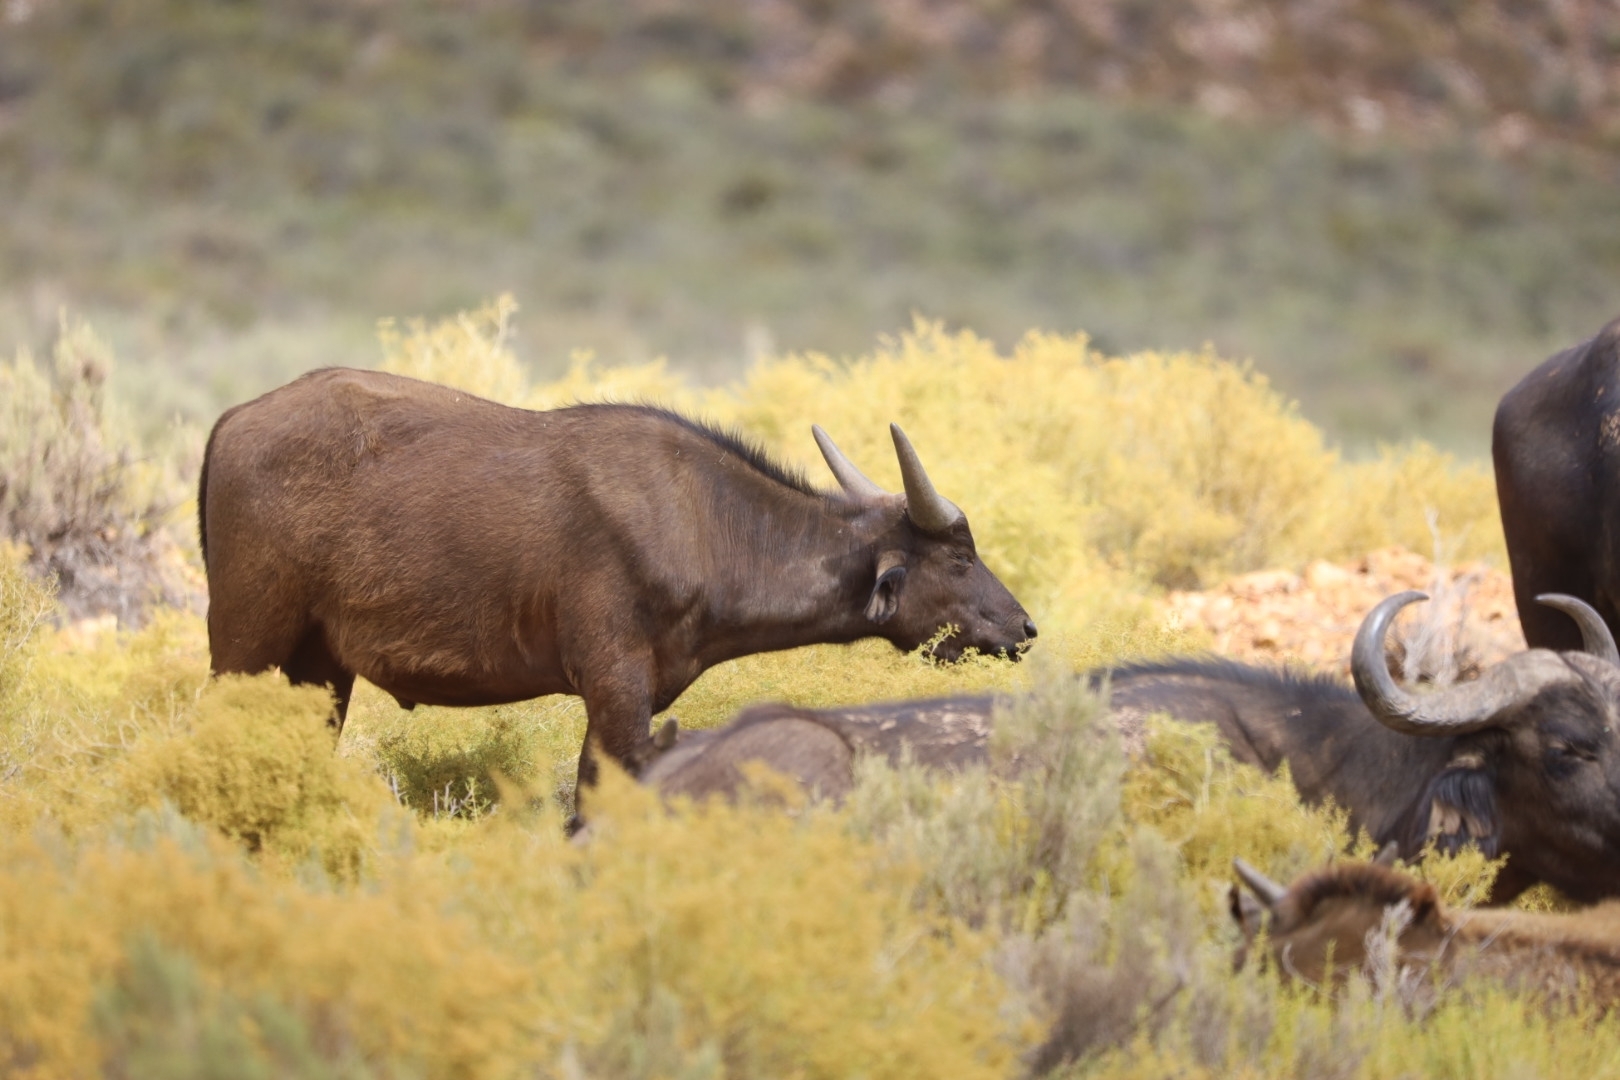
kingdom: Animalia
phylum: Chordata
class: Mammalia
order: Artiodactyla
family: Bovidae
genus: Syncerus
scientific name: Syncerus caffer
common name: African buffalo
